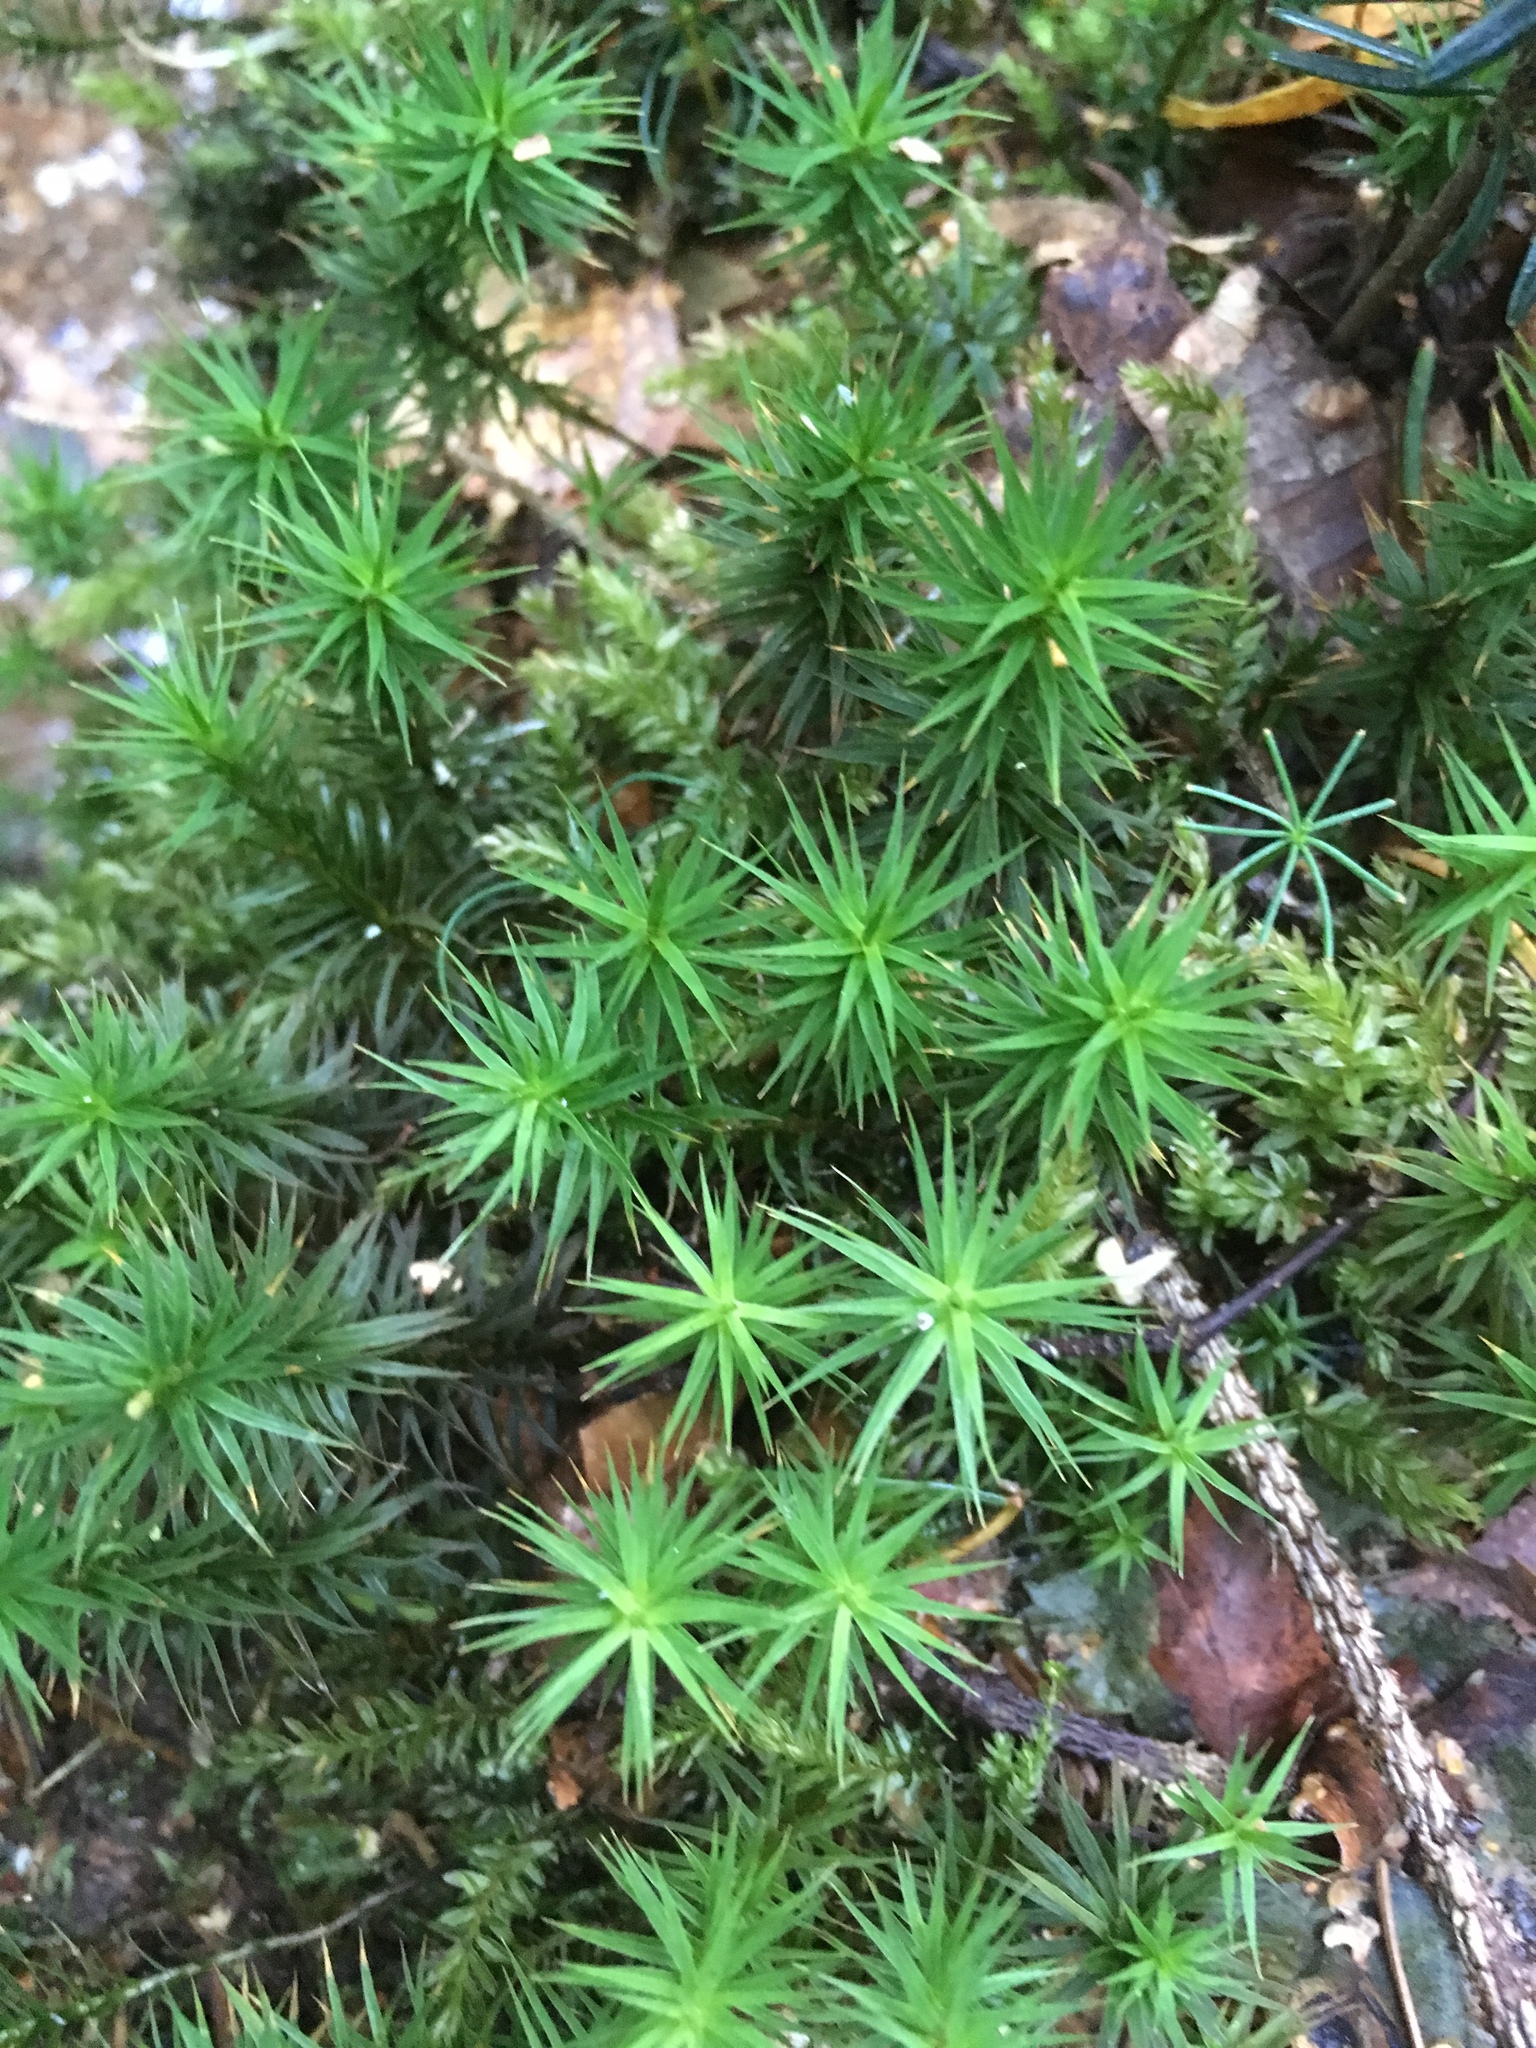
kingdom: Plantae
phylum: Bryophyta
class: Polytrichopsida
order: Polytrichales
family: Polytrichaceae
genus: Polytrichum
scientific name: Polytrichum formosum
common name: Bank haircap moss
